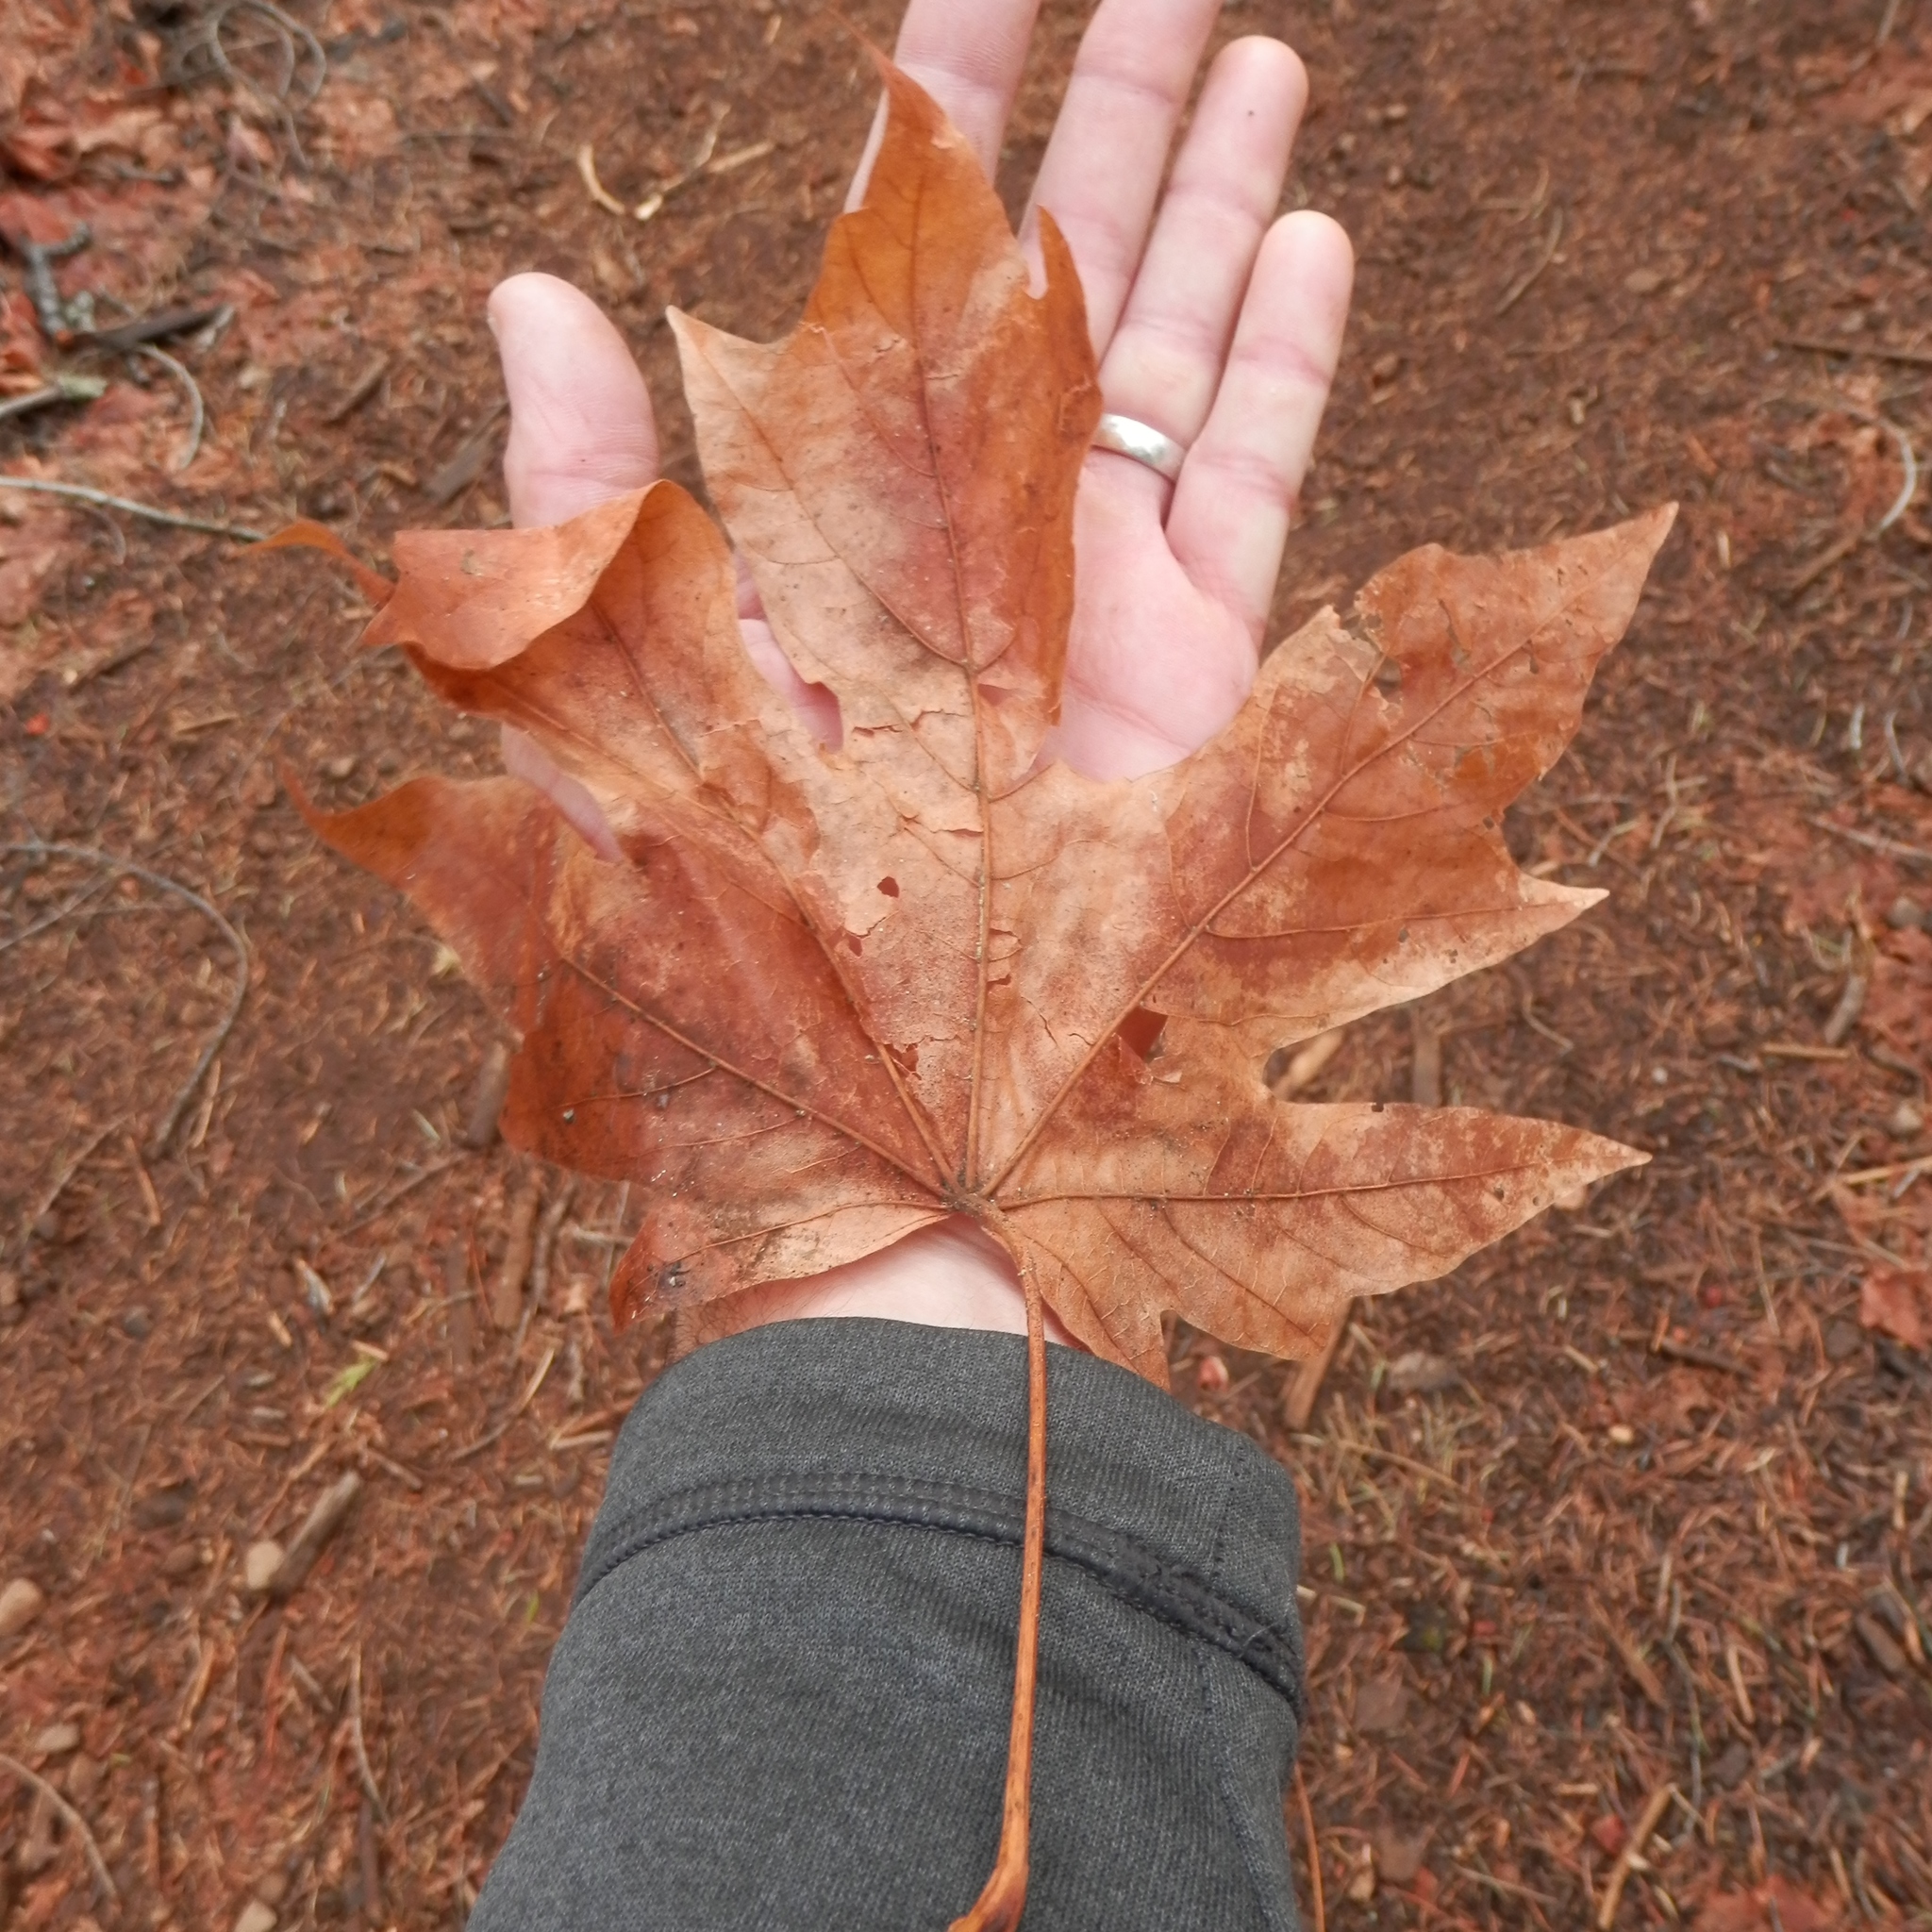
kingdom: Plantae
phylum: Tracheophyta
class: Magnoliopsida
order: Sapindales
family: Sapindaceae
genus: Acer
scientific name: Acer macrophyllum
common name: Oregon maple
